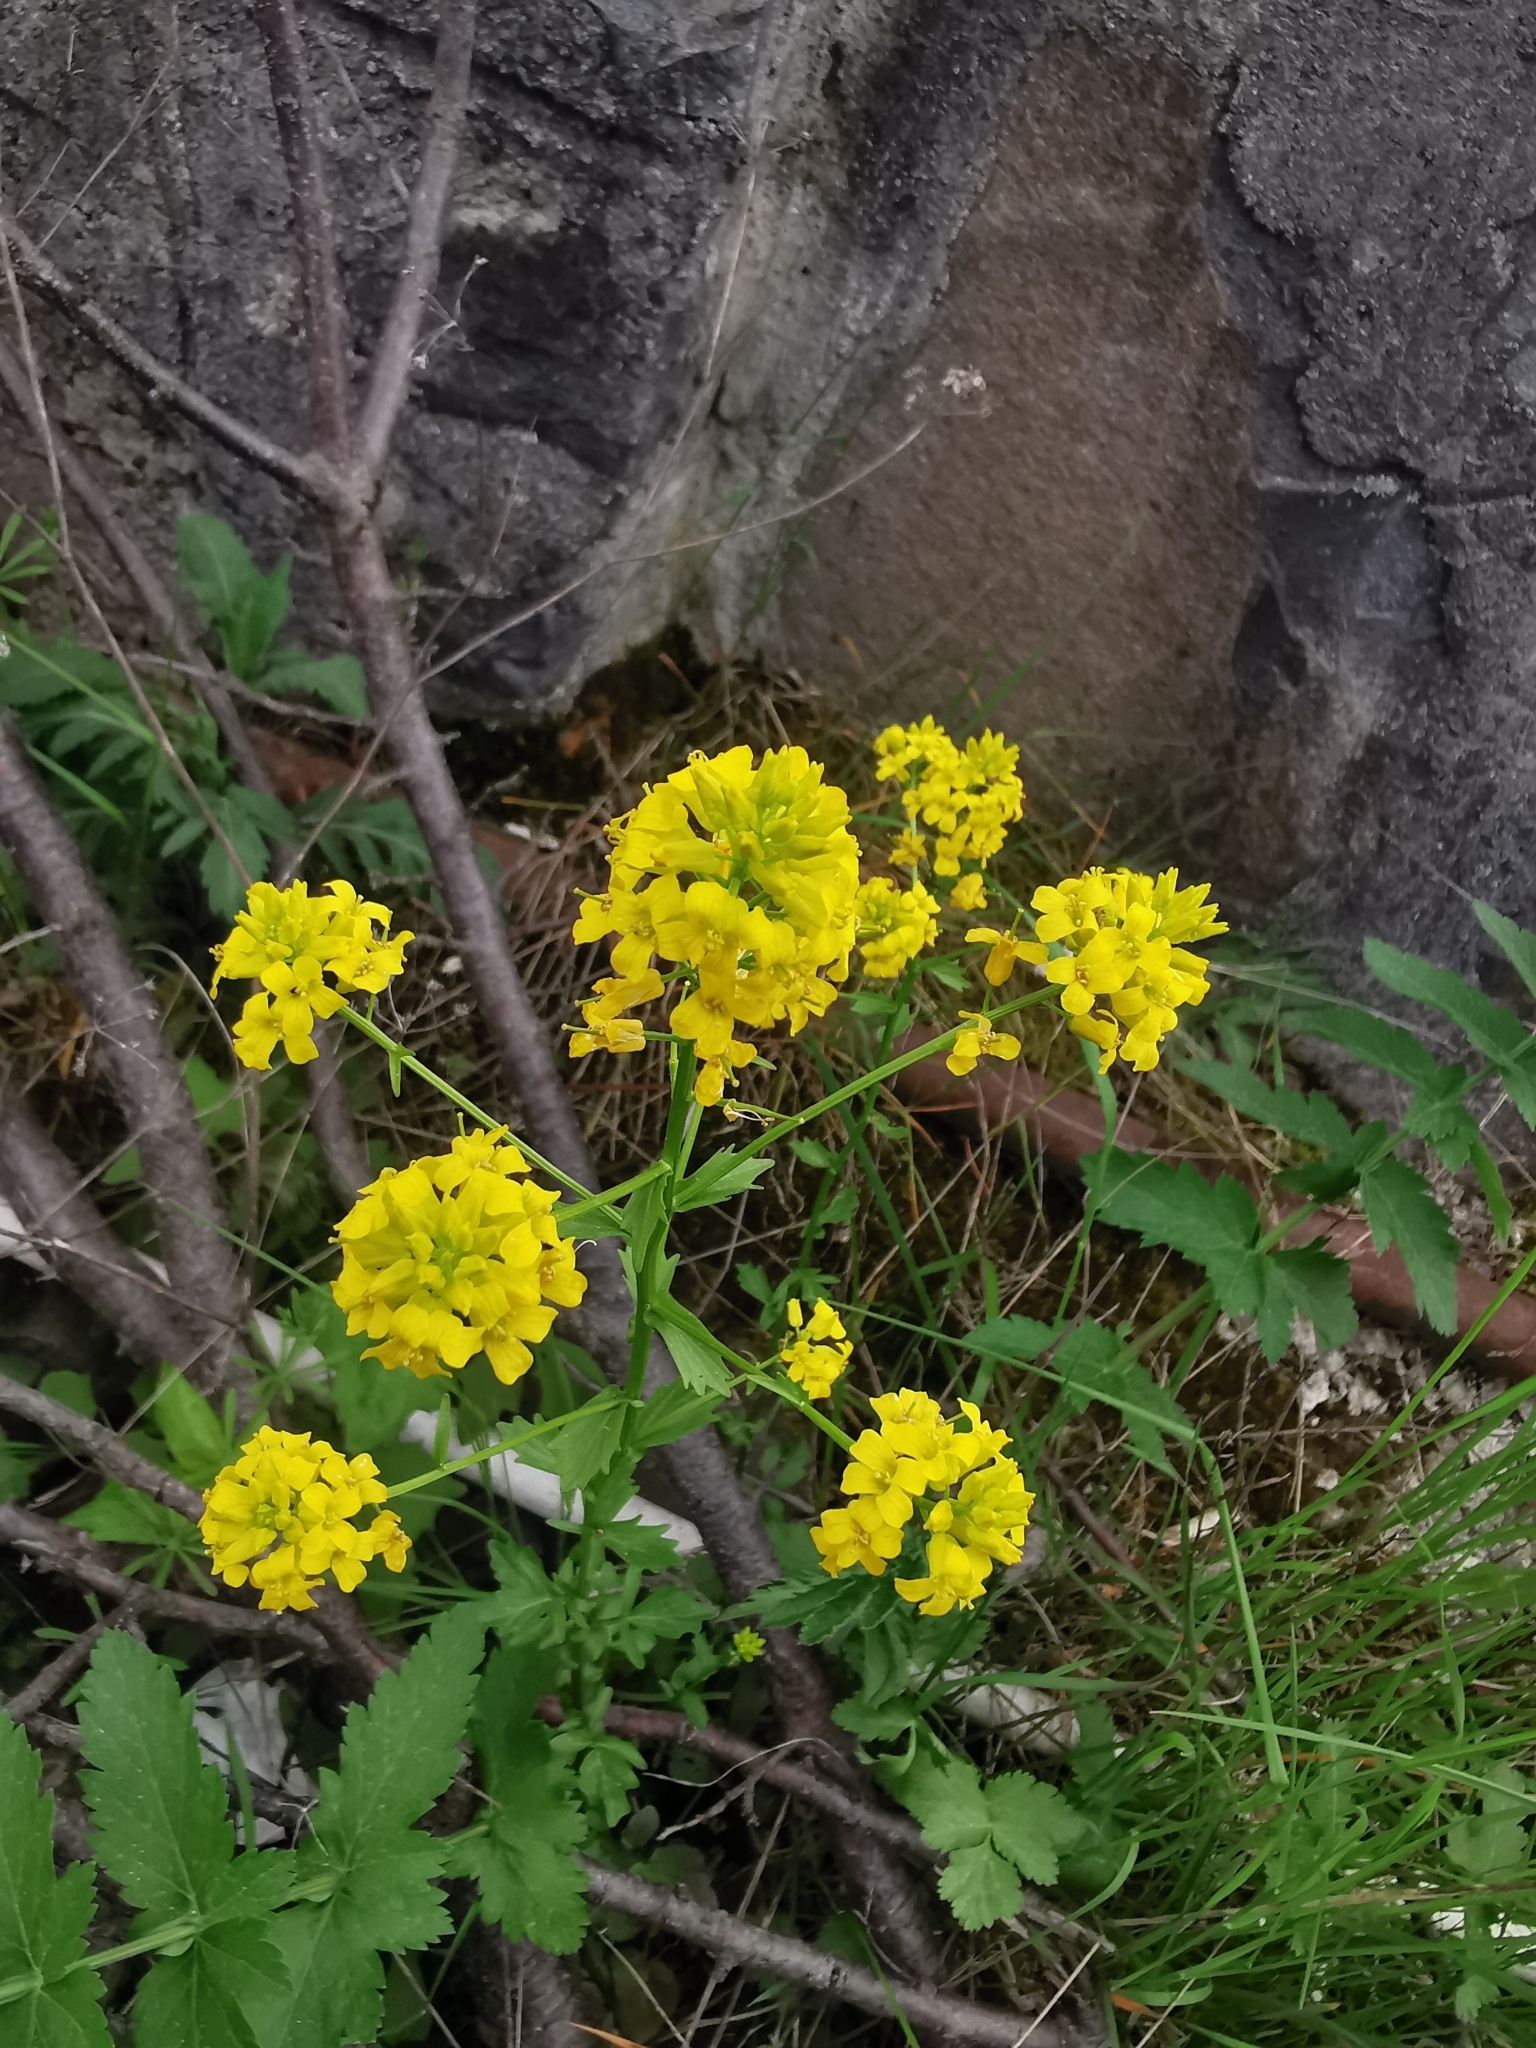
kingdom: Plantae
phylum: Tracheophyta
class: Magnoliopsida
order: Brassicales
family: Brassicaceae
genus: Barbarea
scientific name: Barbarea vulgaris
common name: Cressy-greens
